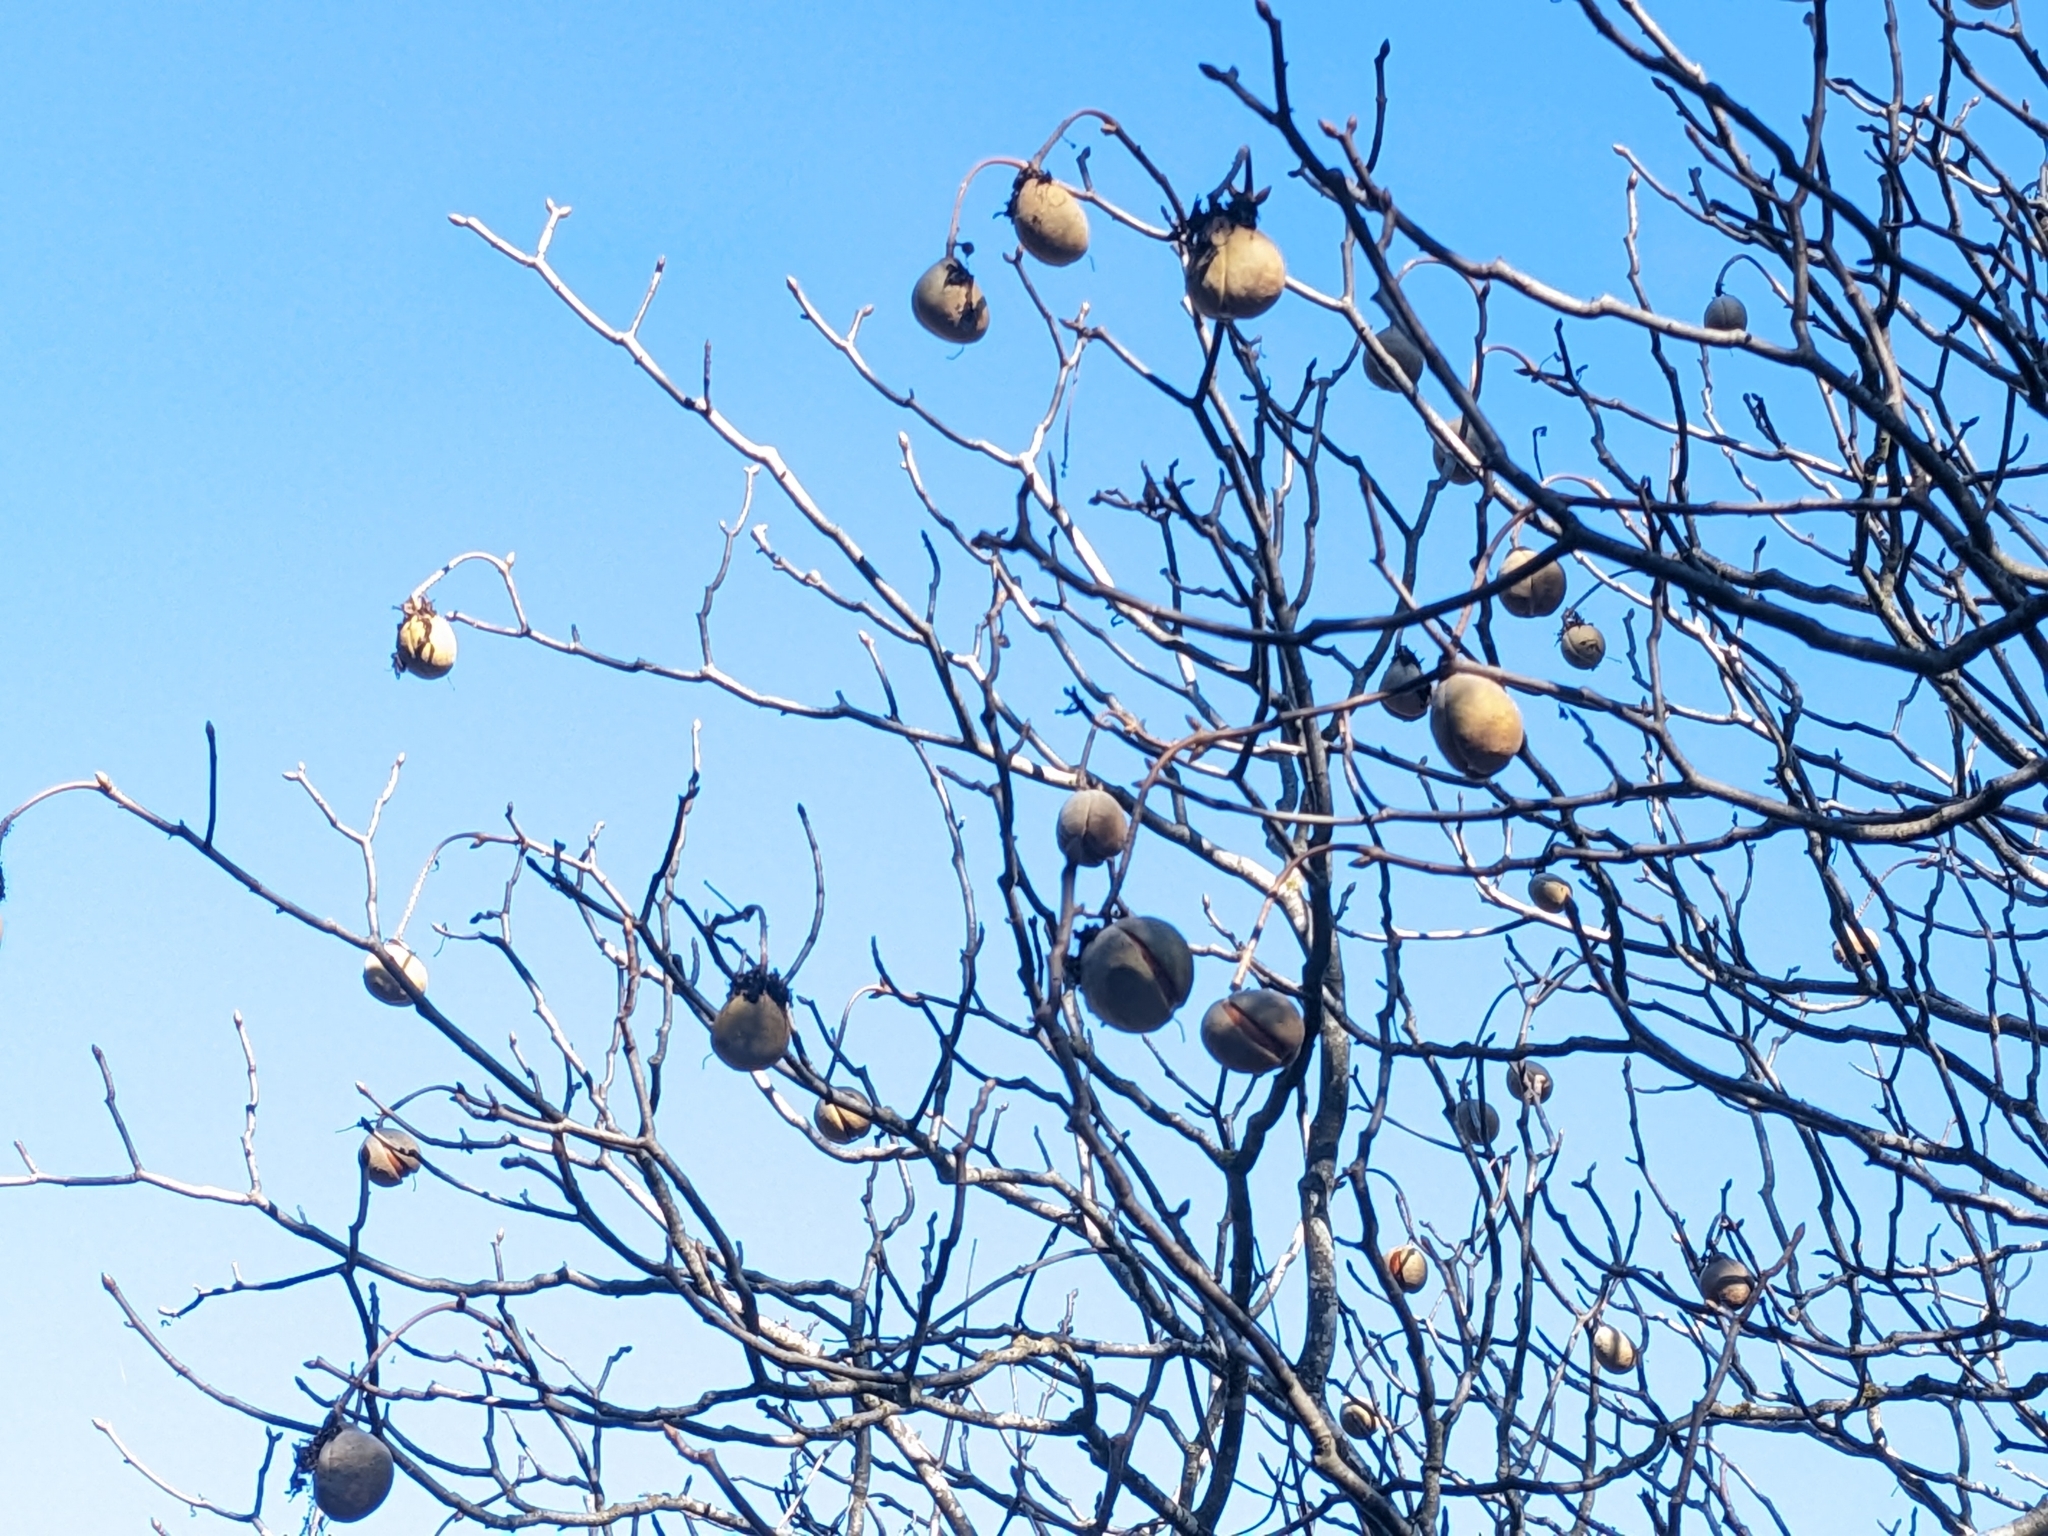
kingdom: Plantae
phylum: Tracheophyta
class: Magnoliopsida
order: Sapindales
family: Sapindaceae
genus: Aesculus
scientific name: Aesculus californica
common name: California buckeye
